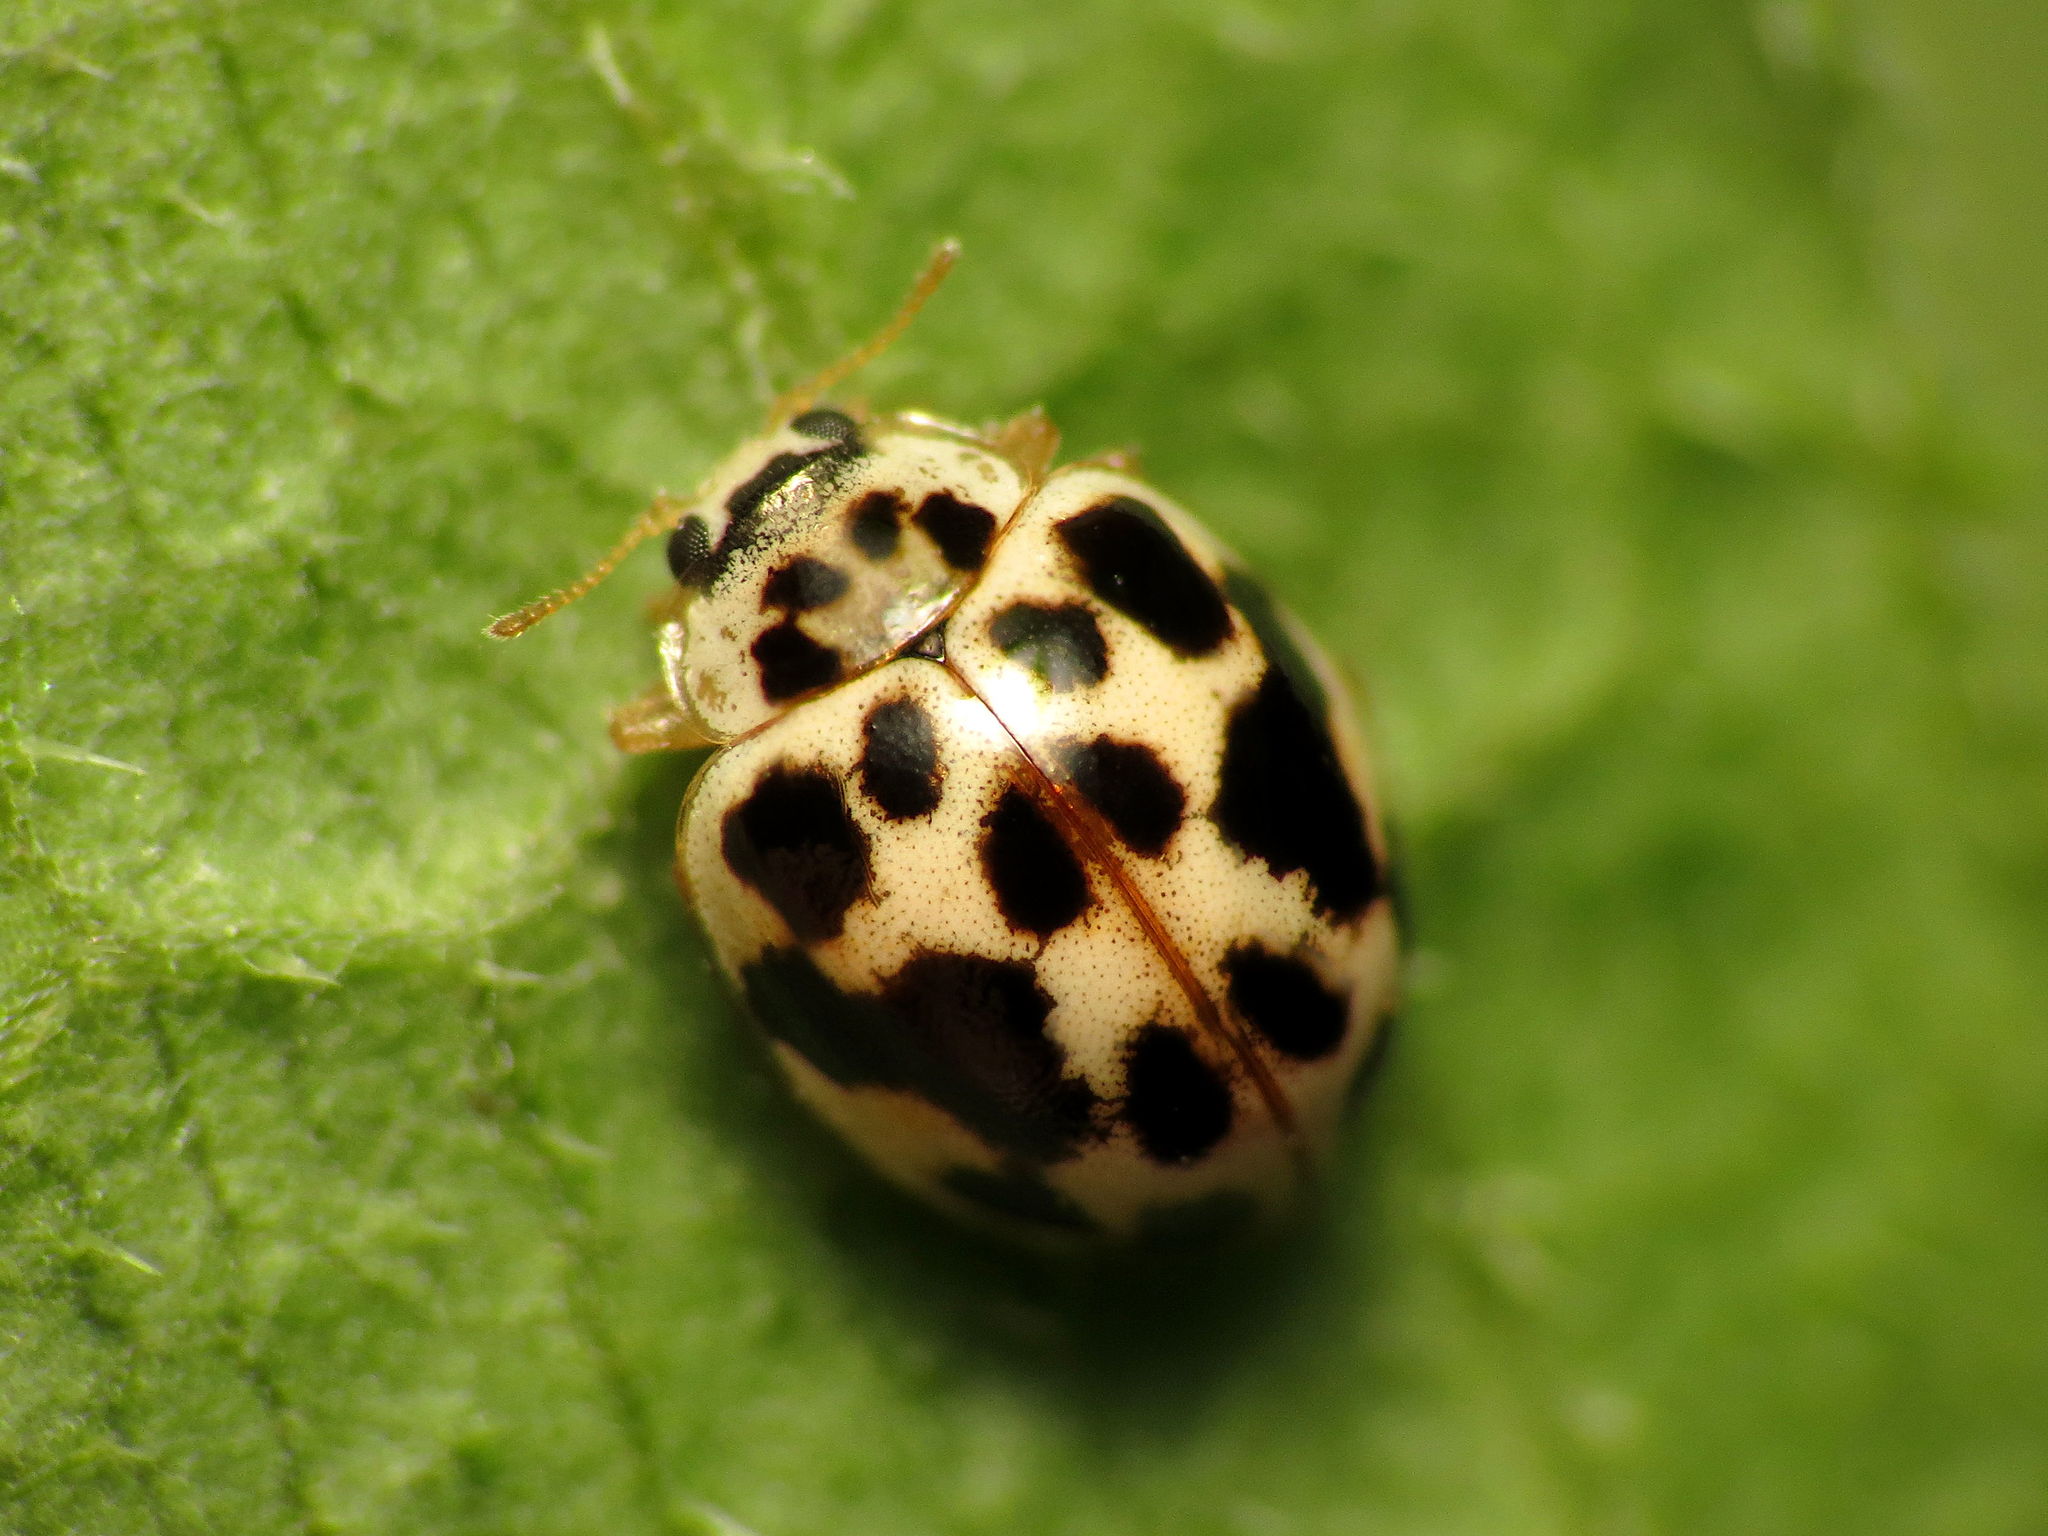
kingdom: Animalia
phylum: Arthropoda
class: Insecta
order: Coleoptera
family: Coccinellidae
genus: Psyllobora
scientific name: Psyllobora vigintimaculata
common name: Ladybird beetle
